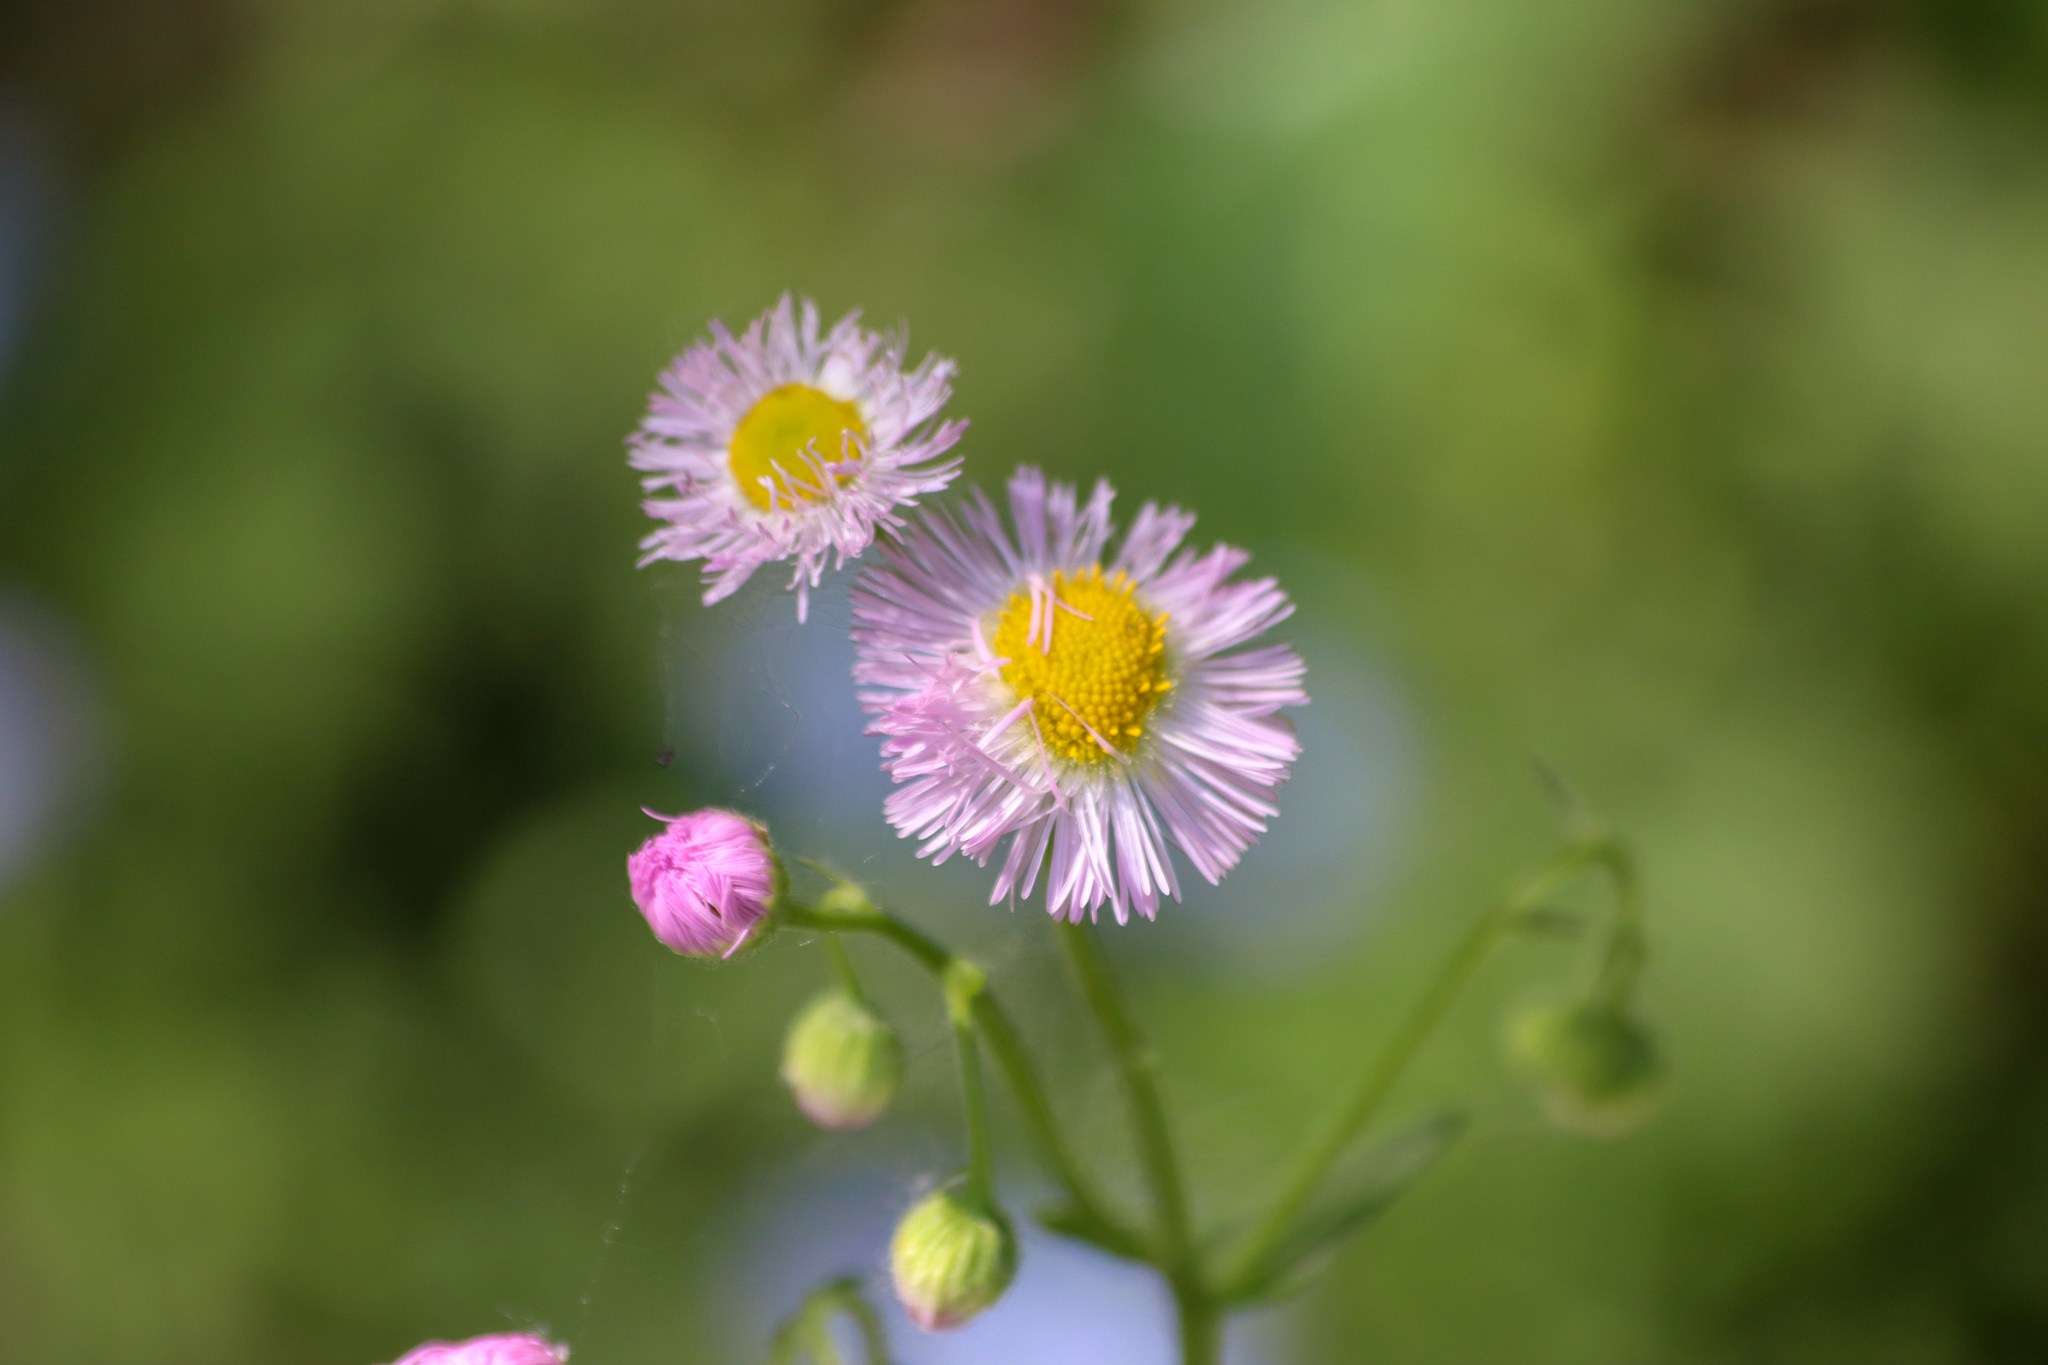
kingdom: Plantae
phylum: Tracheophyta
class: Magnoliopsida
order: Asterales
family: Asteraceae
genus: Erigeron
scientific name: Erigeron philadelphicus
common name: Robin's-plantain
